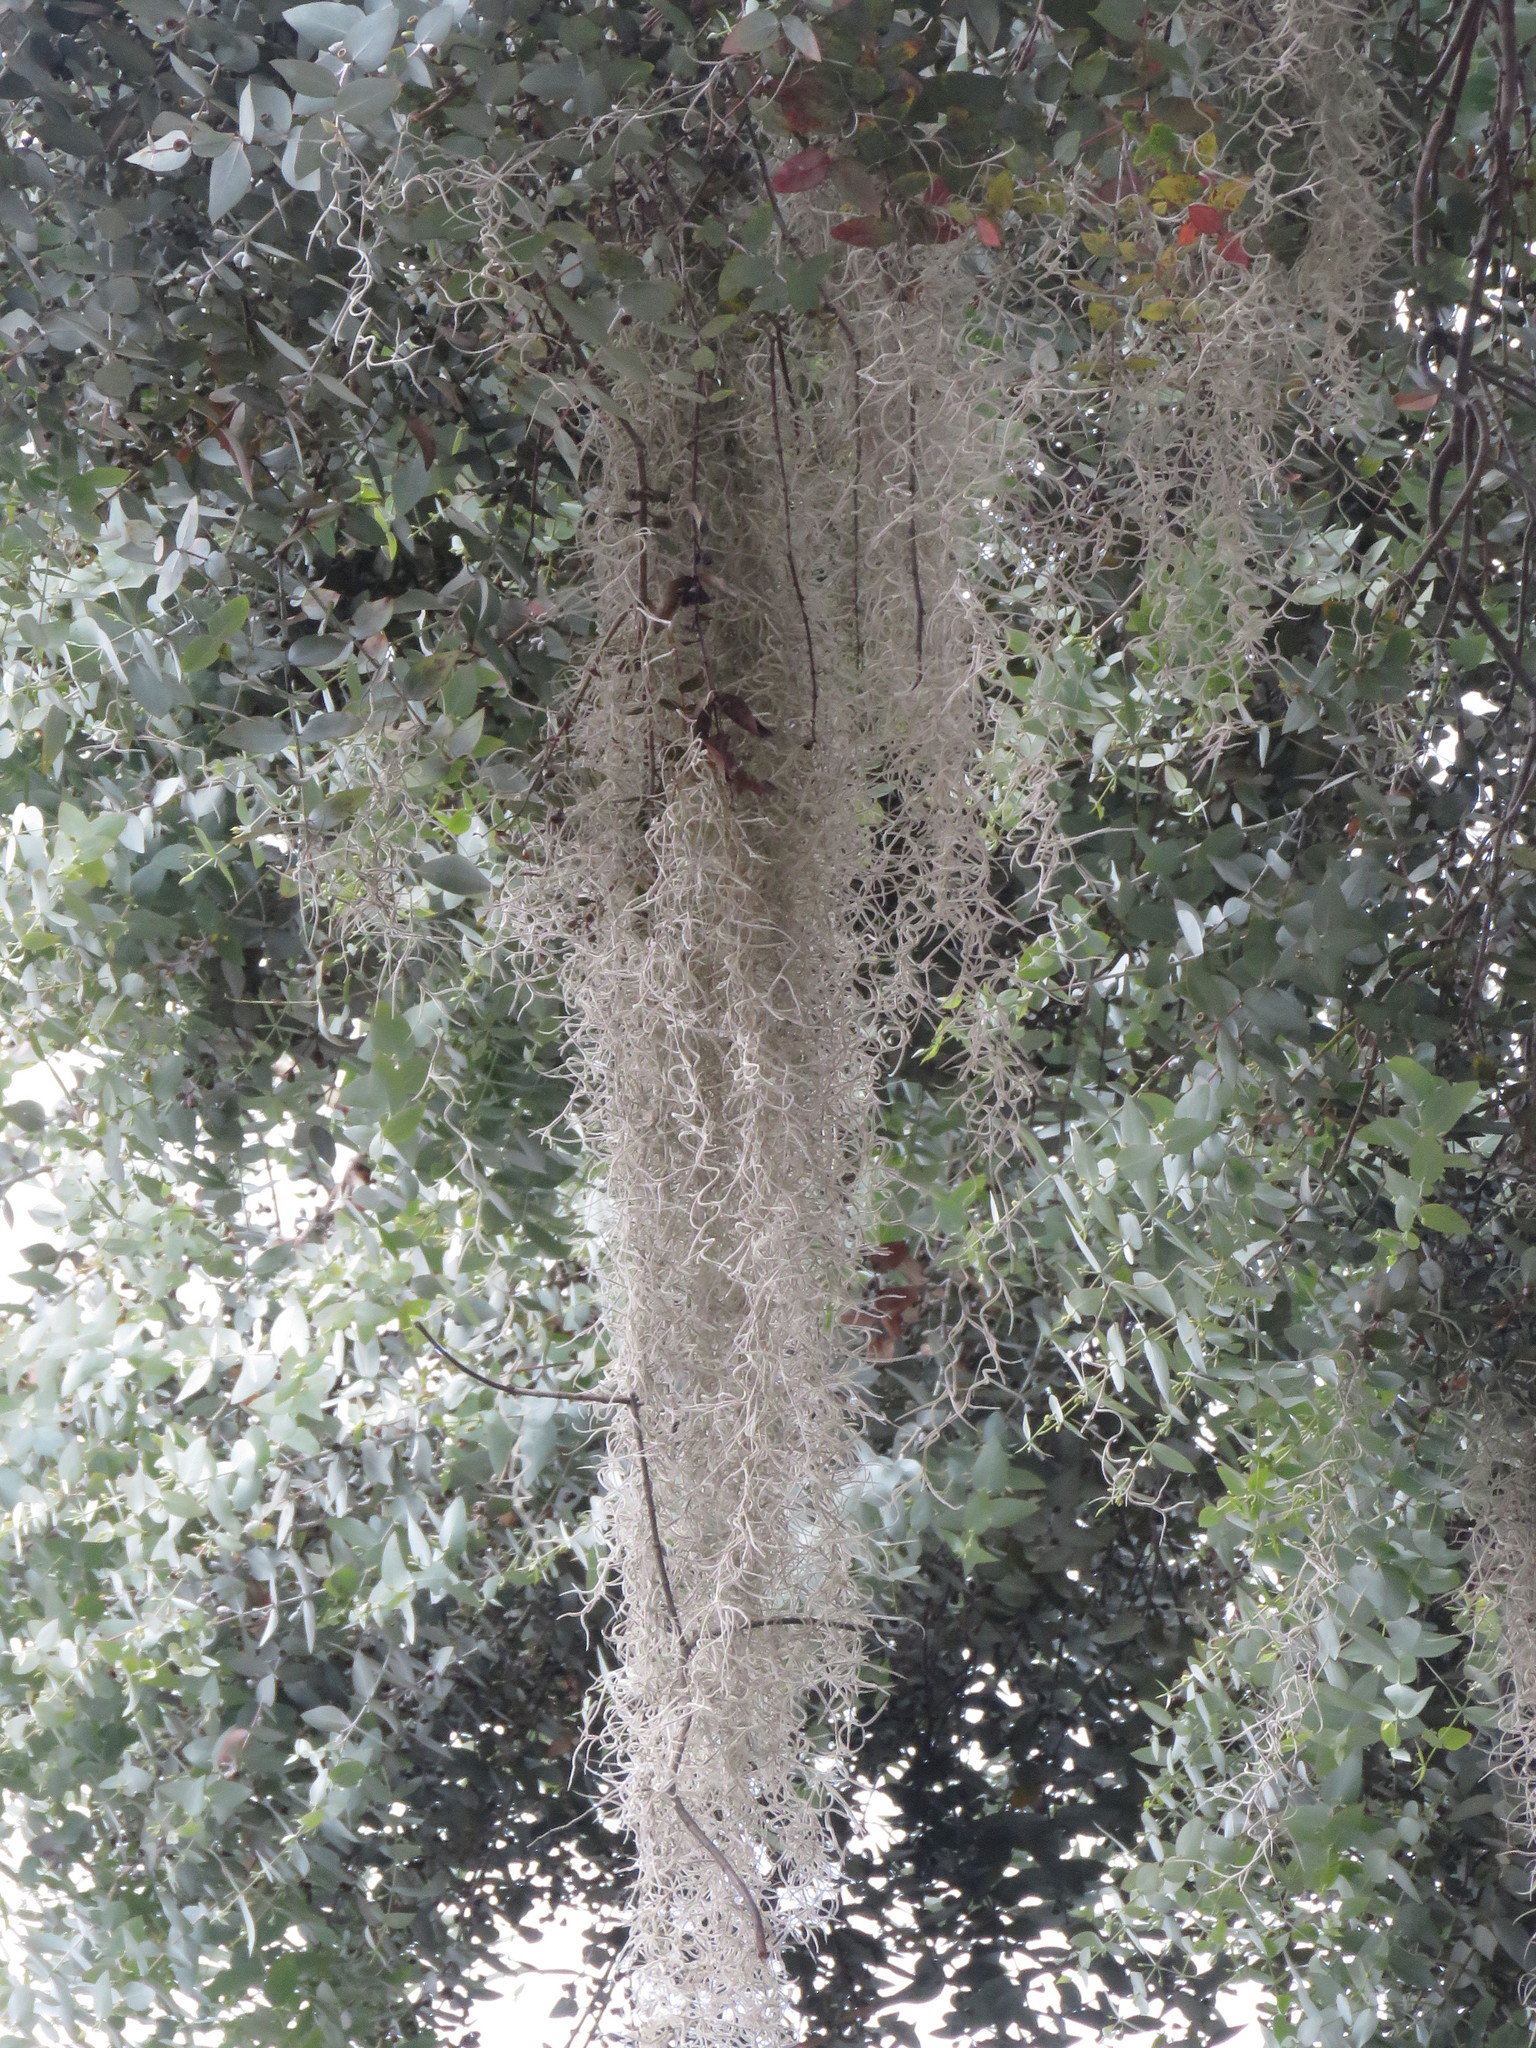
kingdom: Plantae
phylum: Tracheophyta
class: Liliopsida
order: Poales
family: Bromeliaceae
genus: Tillandsia
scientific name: Tillandsia usneoides
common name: Spanish moss
